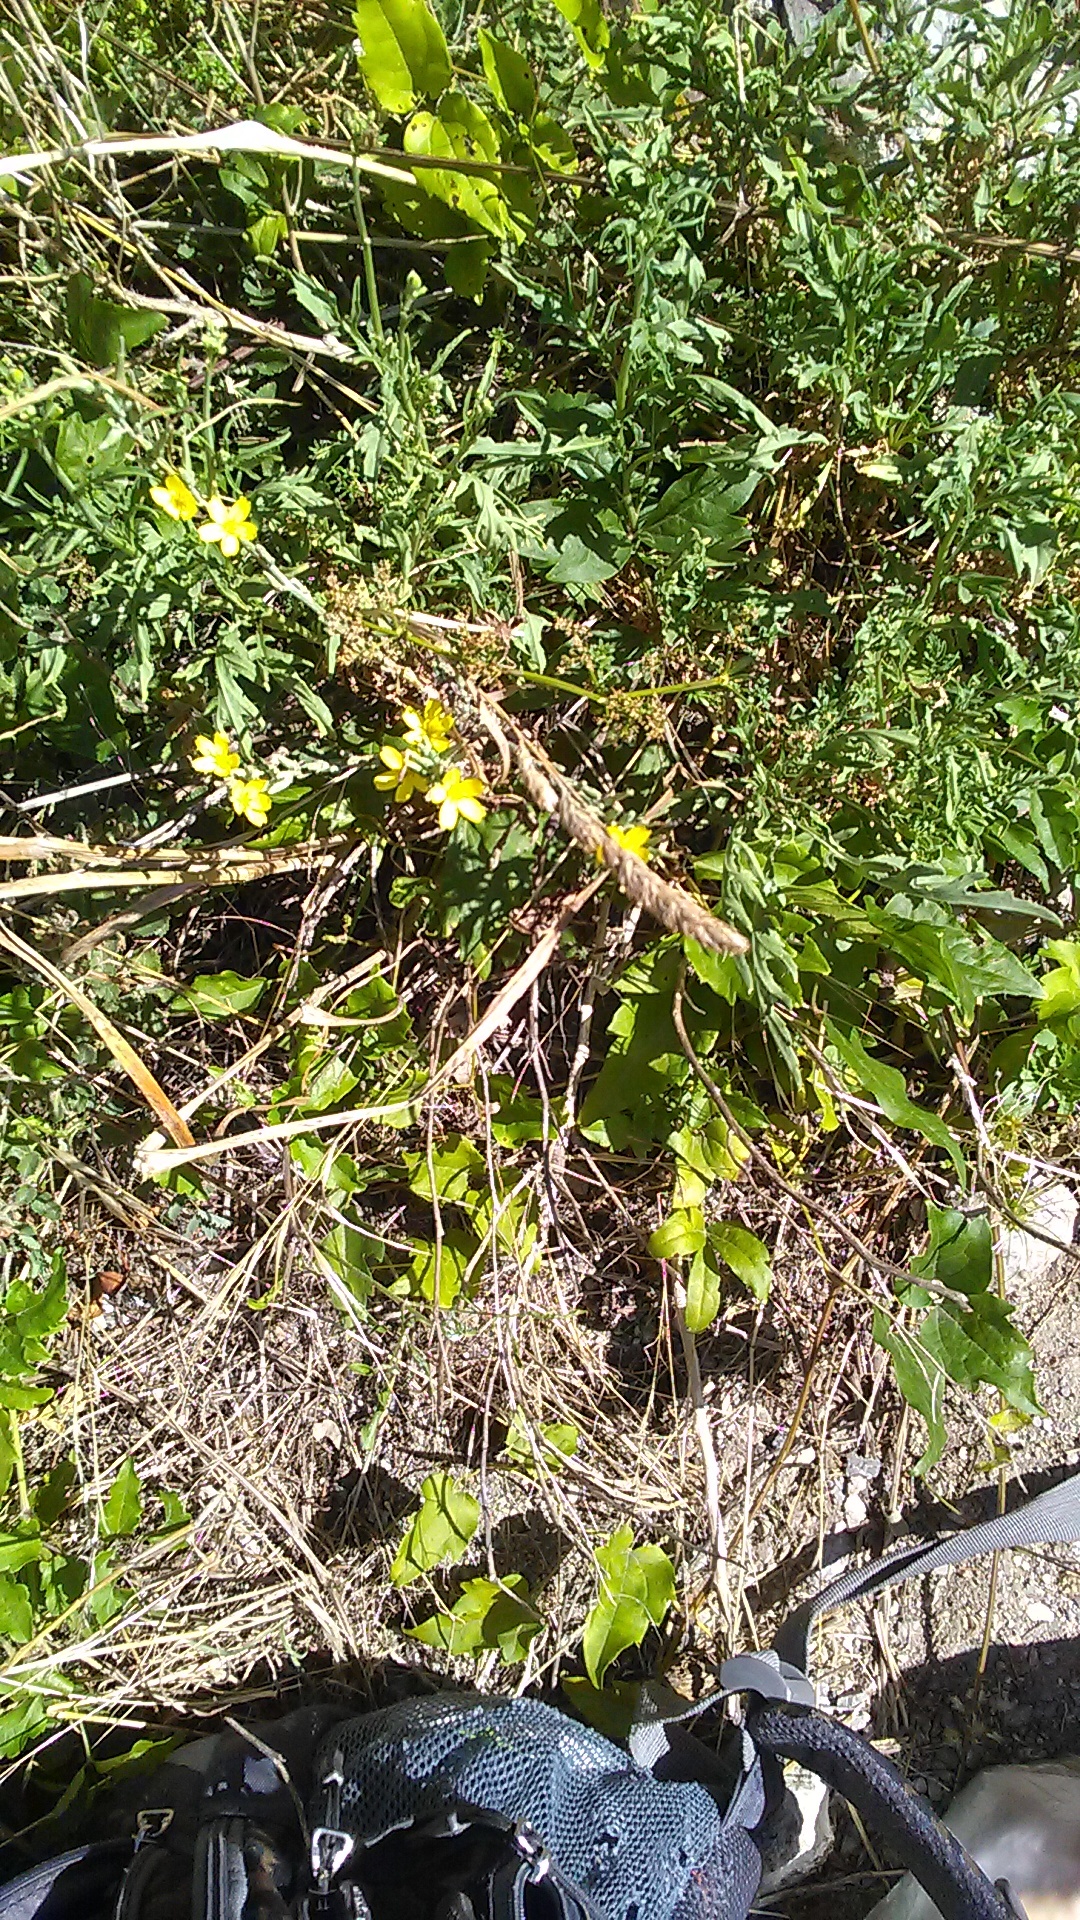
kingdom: Plantae
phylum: Tracheophyta
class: Magnoliopsida
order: Asterales
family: Asteraceae
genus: Lactuca
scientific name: Lactuca viminea
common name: Pliant lettuce
